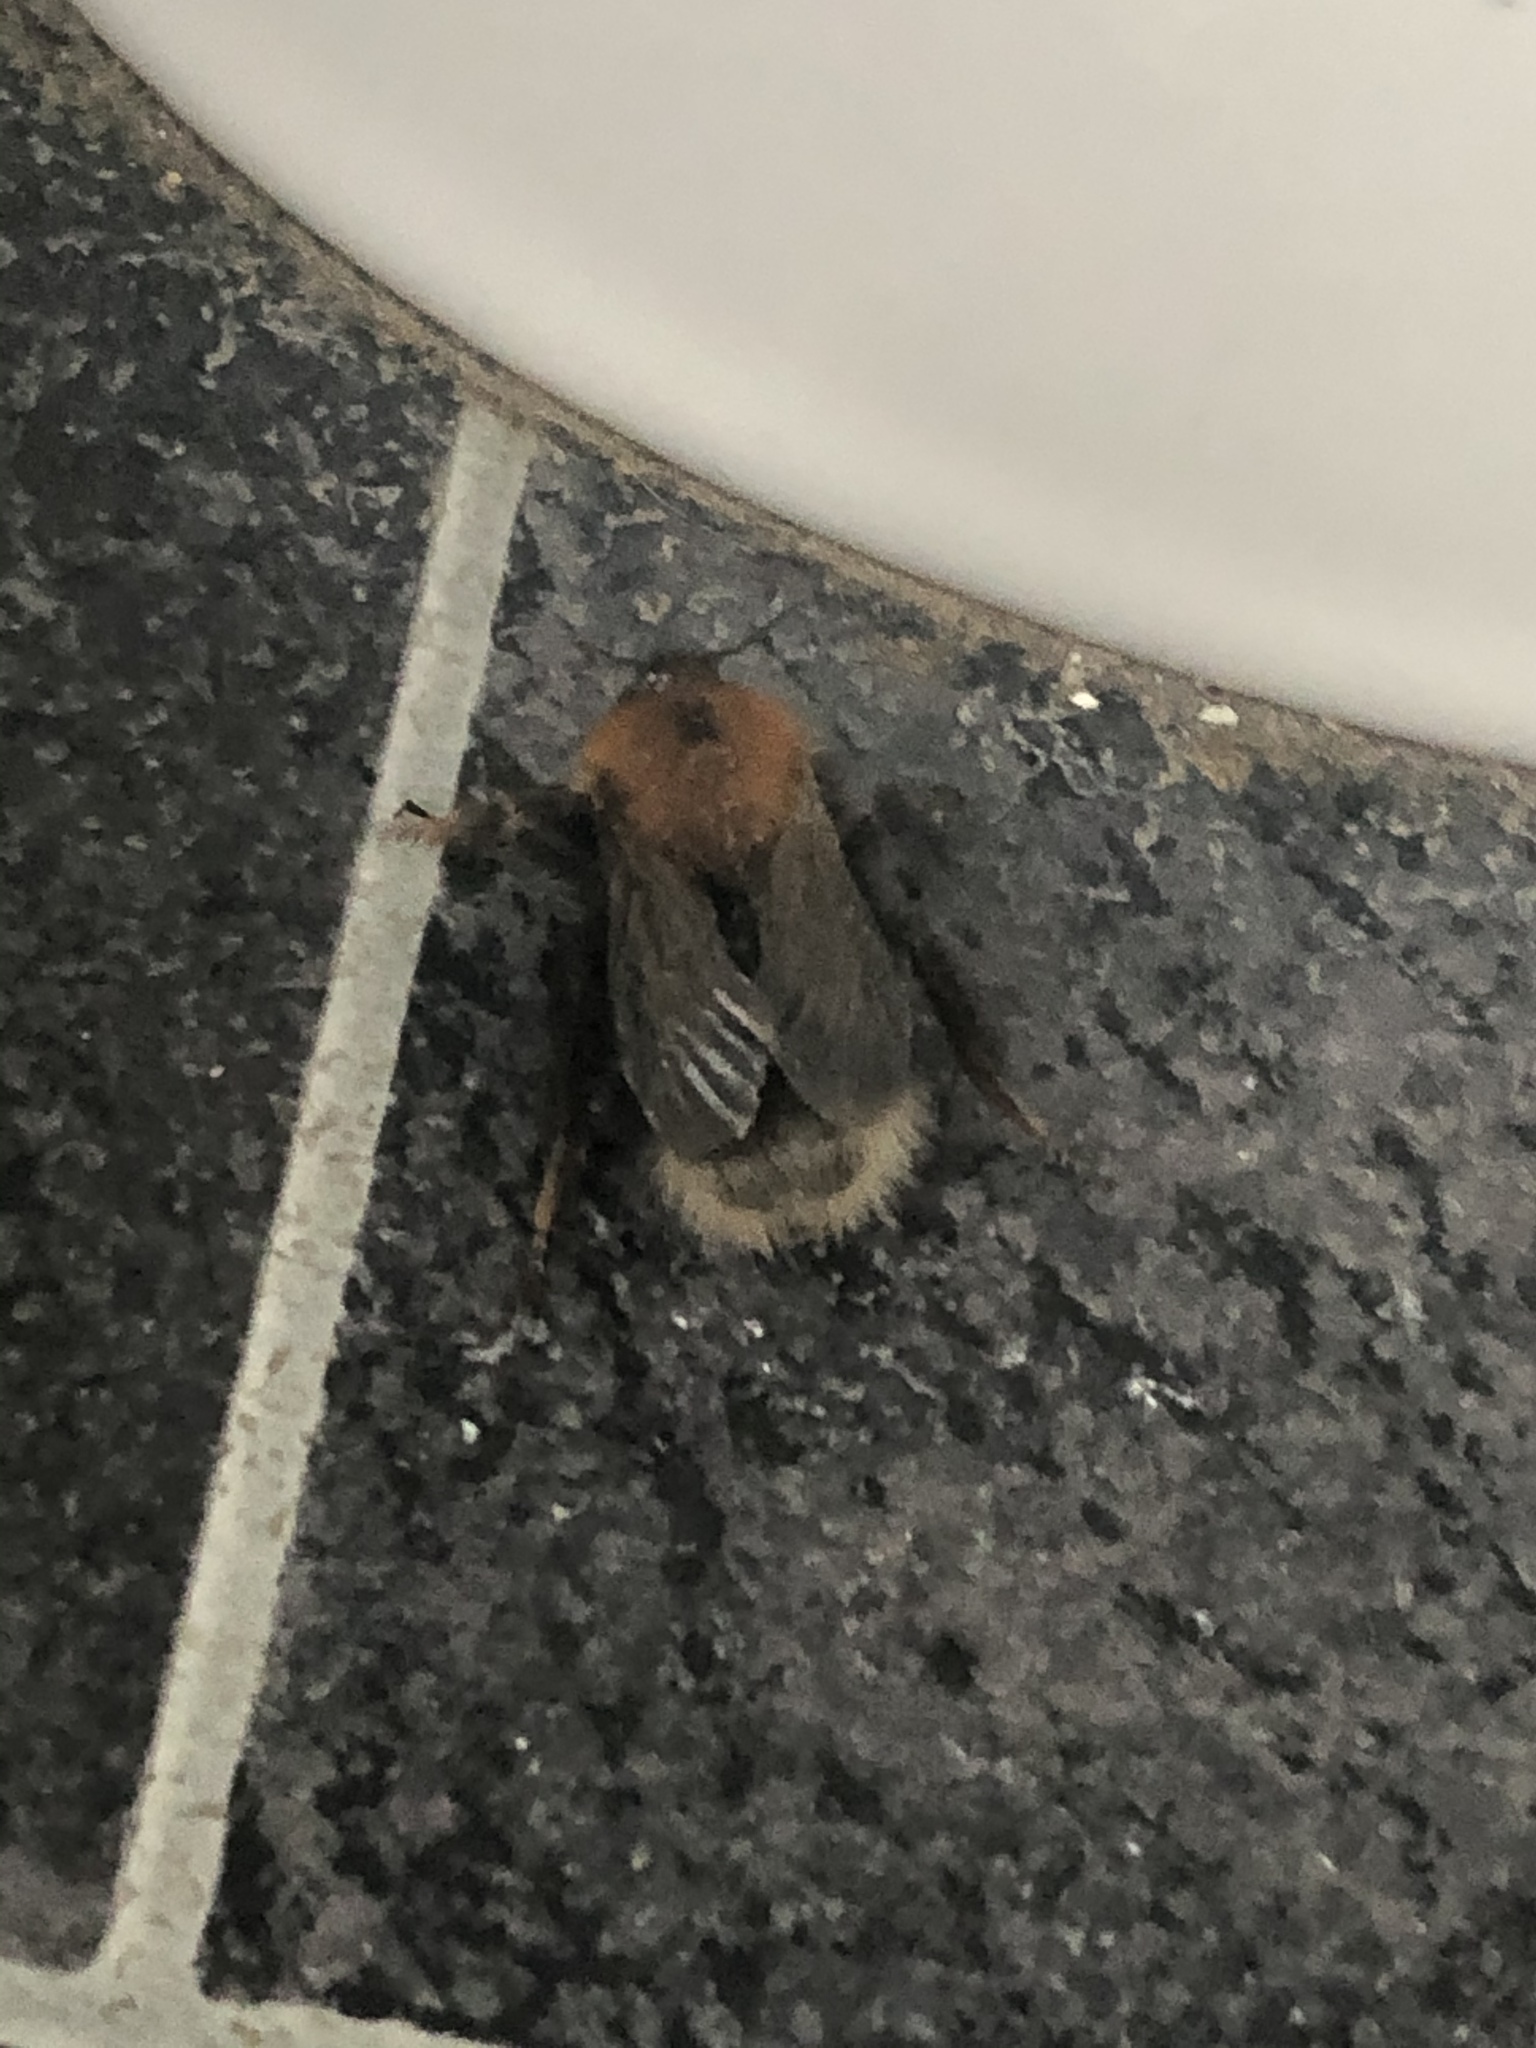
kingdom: Animalia
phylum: Arthropoda
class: Insecta
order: Hymenoptera
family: Apidae
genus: Bombus
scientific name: Bombus hypnorum
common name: New garden bumblebee
